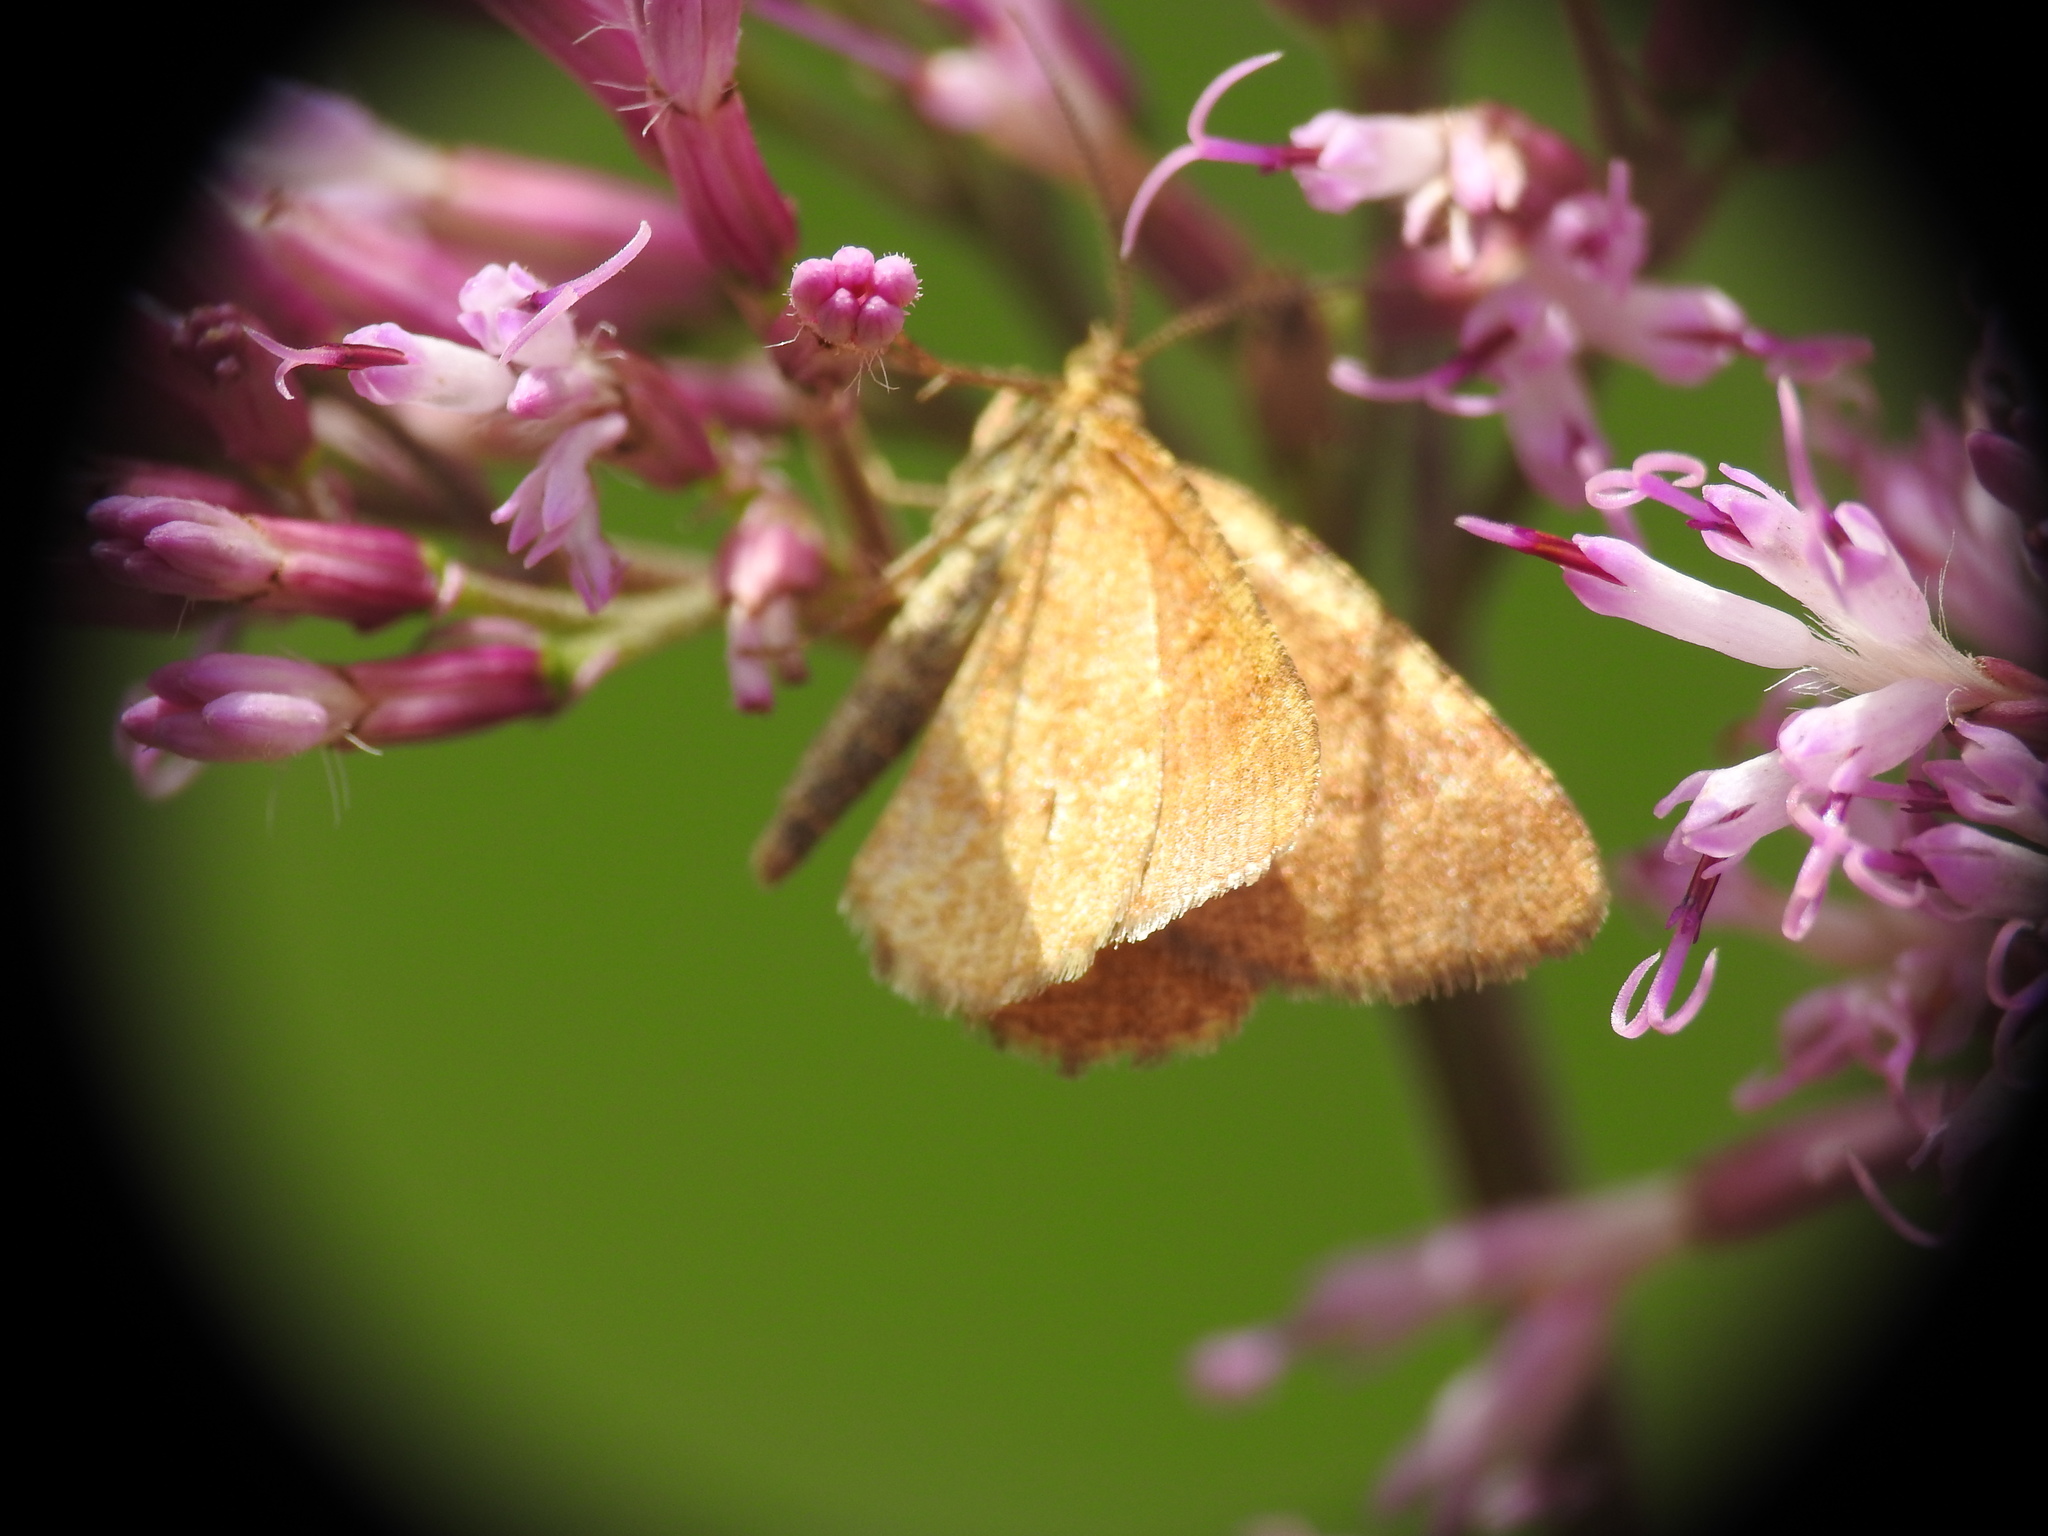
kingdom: Animalia
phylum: Arthropoda
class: Insecta
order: Lepidoptera
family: Geometridae
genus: Macaria
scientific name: Macaria brunneata
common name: Rannoch looper
